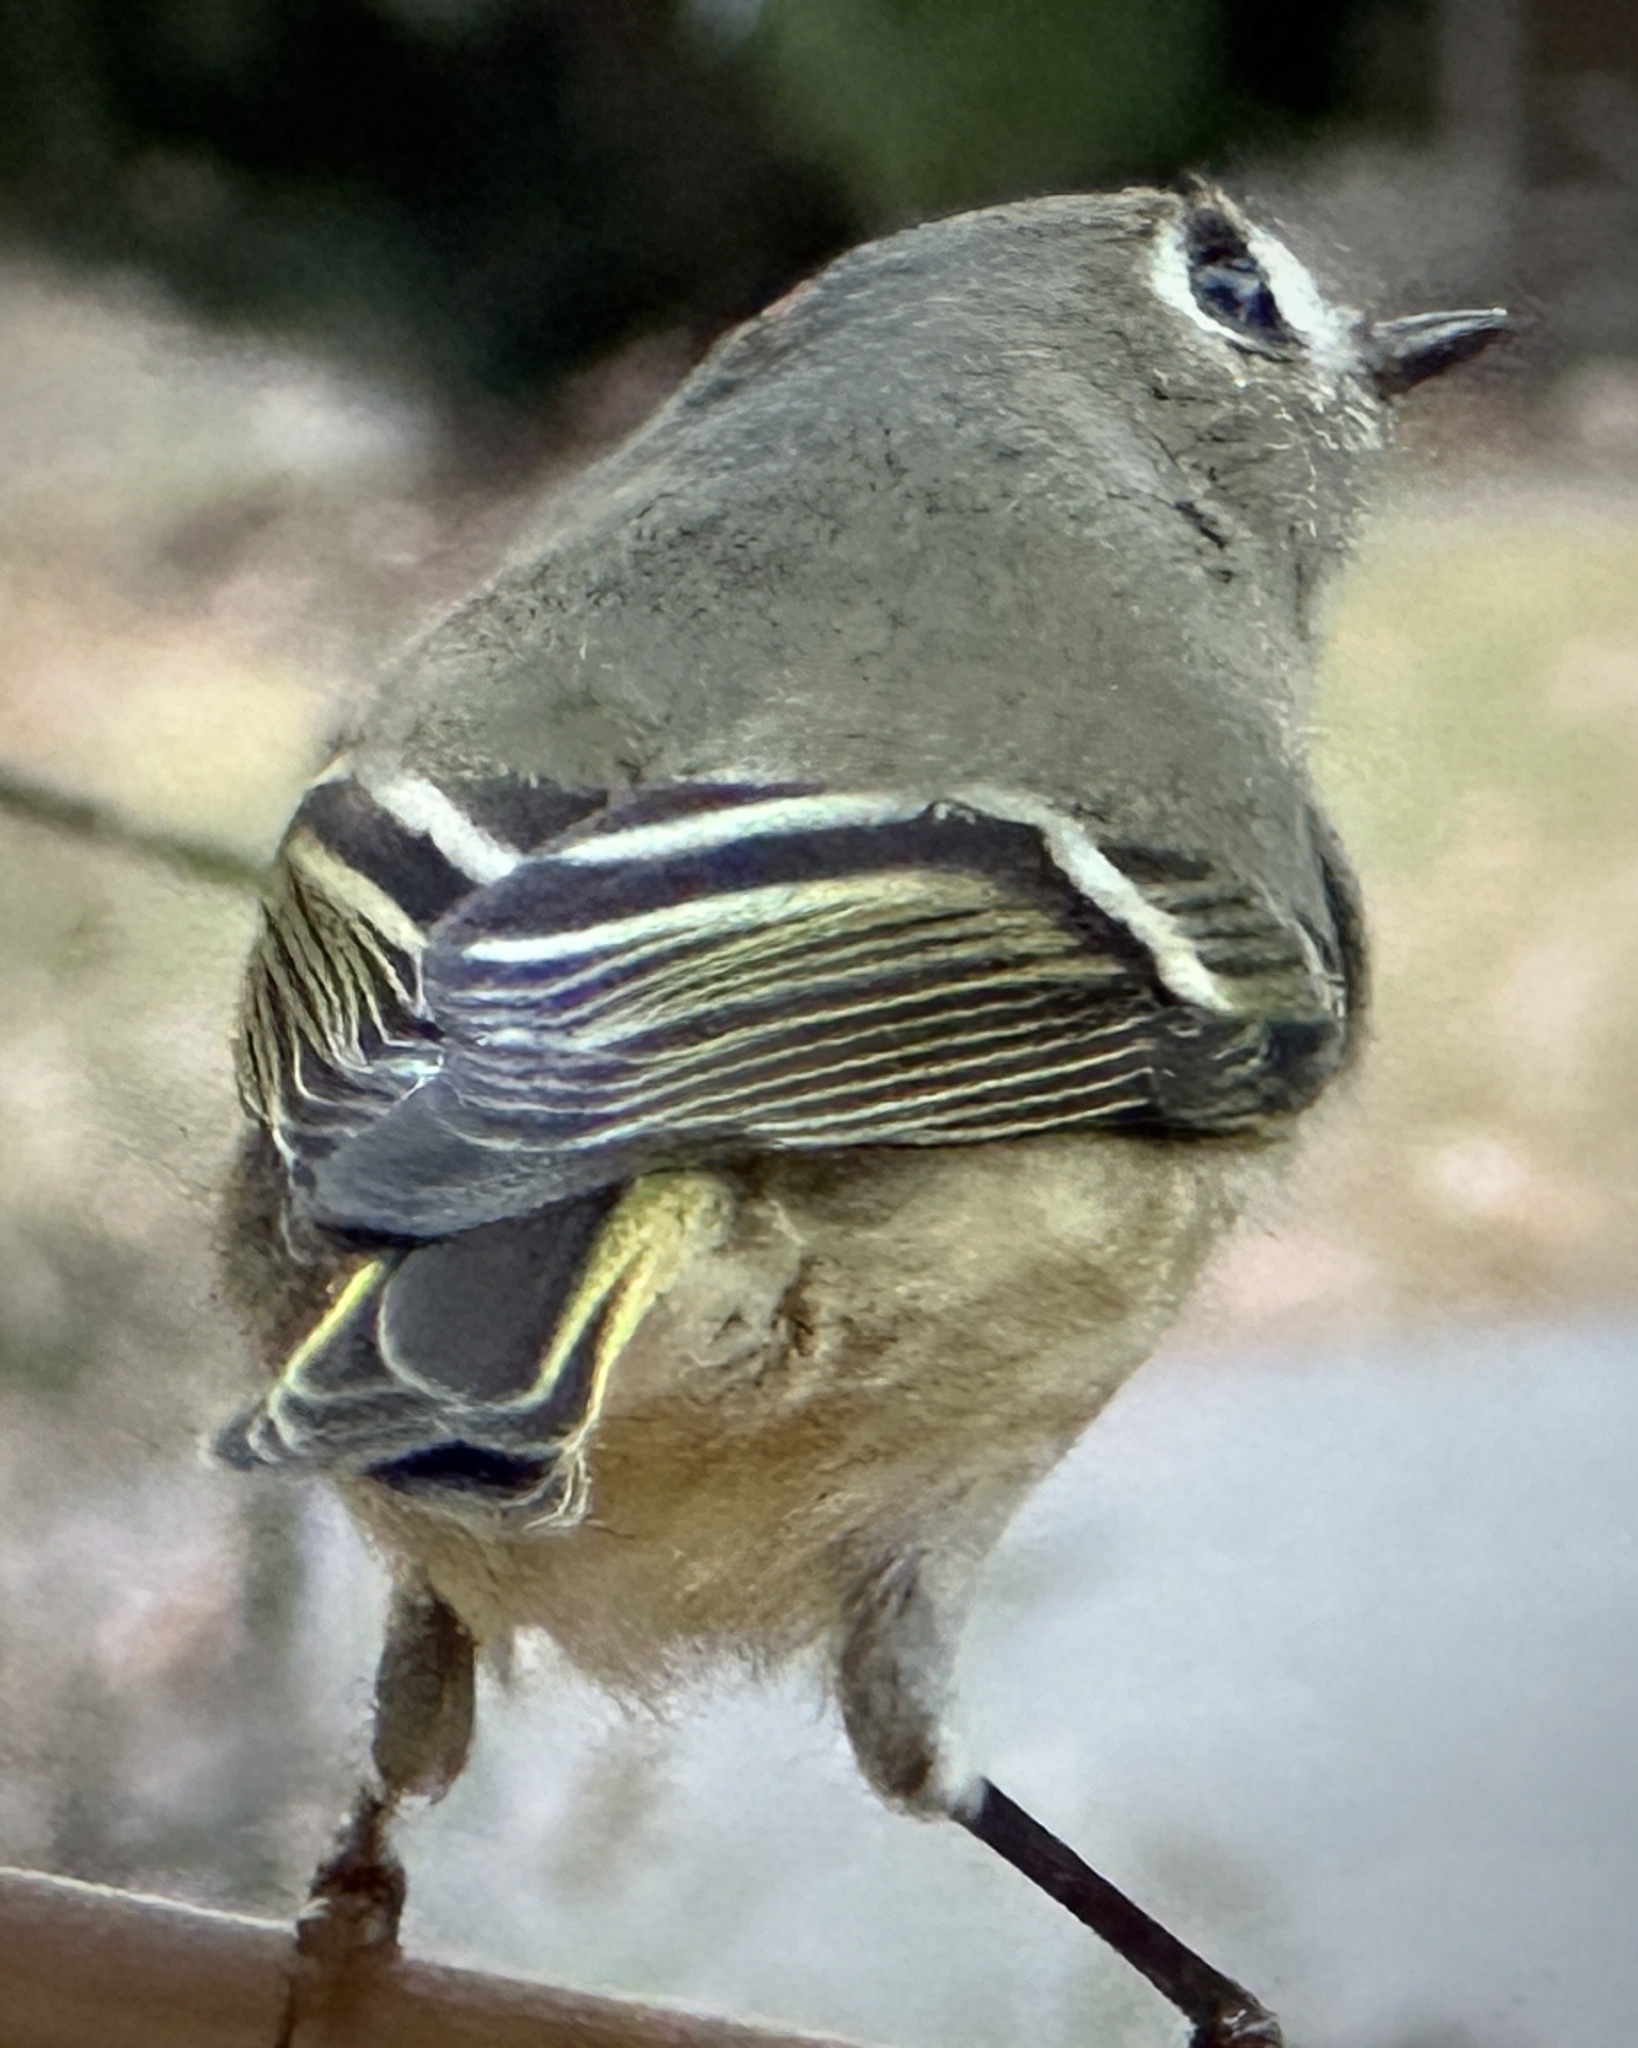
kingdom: Animalia
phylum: Chordata
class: Aves
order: Passeriformes
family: Regulidae
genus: Regulus
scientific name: Regulus calendula
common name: Ruby-crowned kinglet
